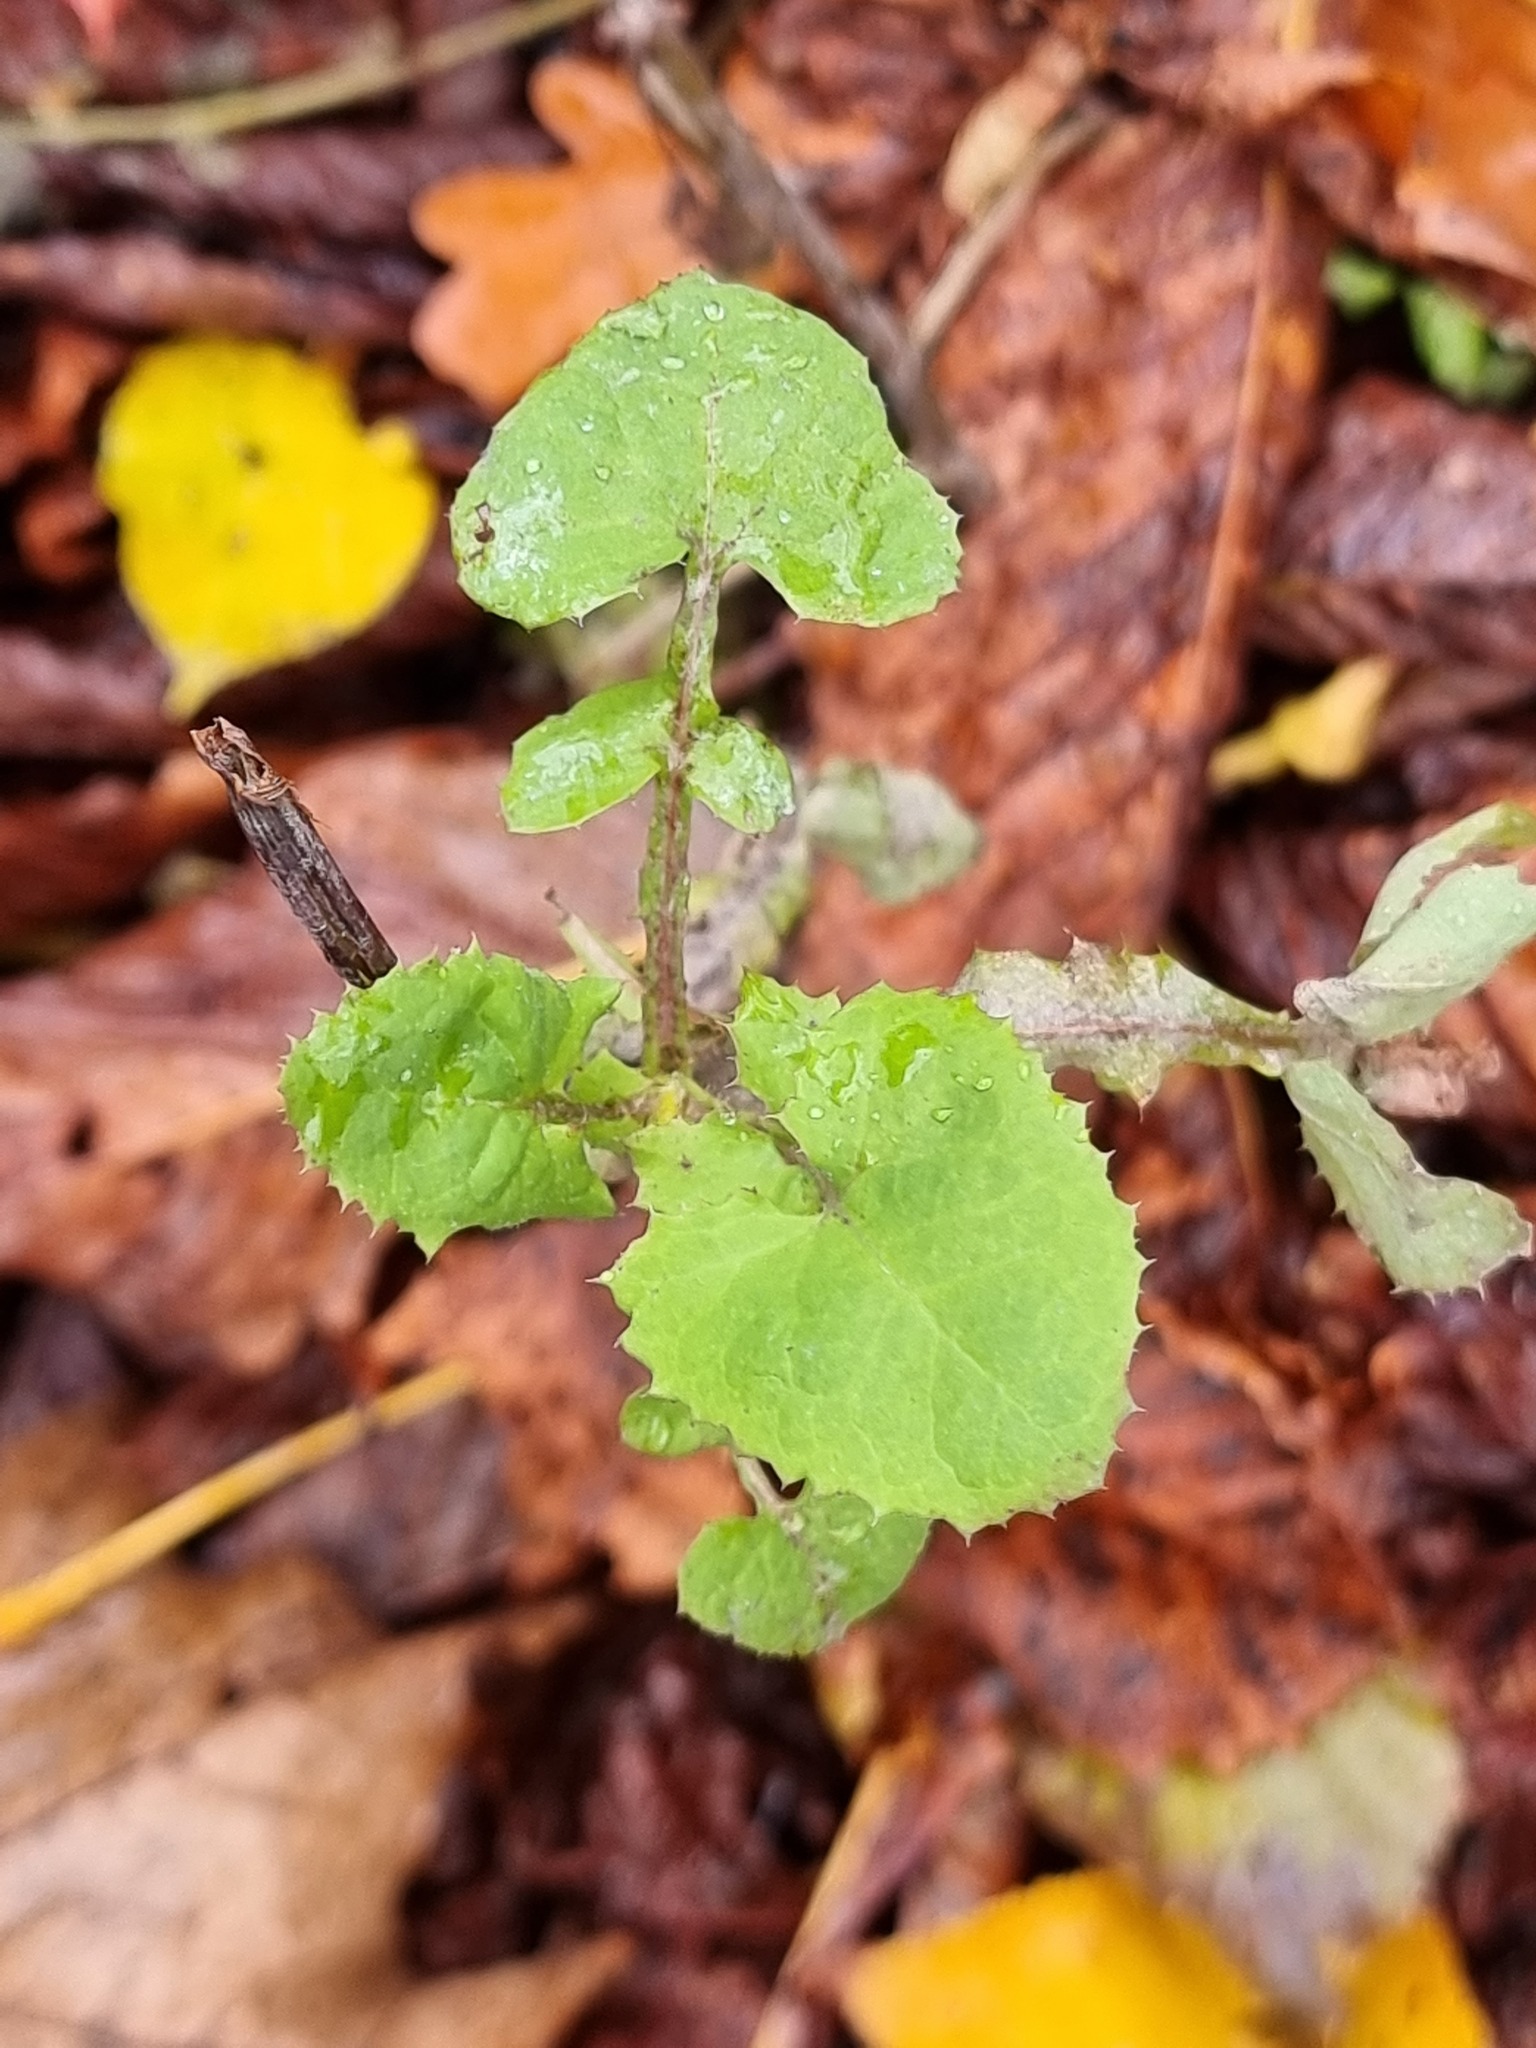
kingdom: Plantae
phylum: Tracheophyta
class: Magnoliopsida
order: Asterales
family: Asteraceae
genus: Sonchus
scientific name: Sonchus oleraceus
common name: Common sowthistle
